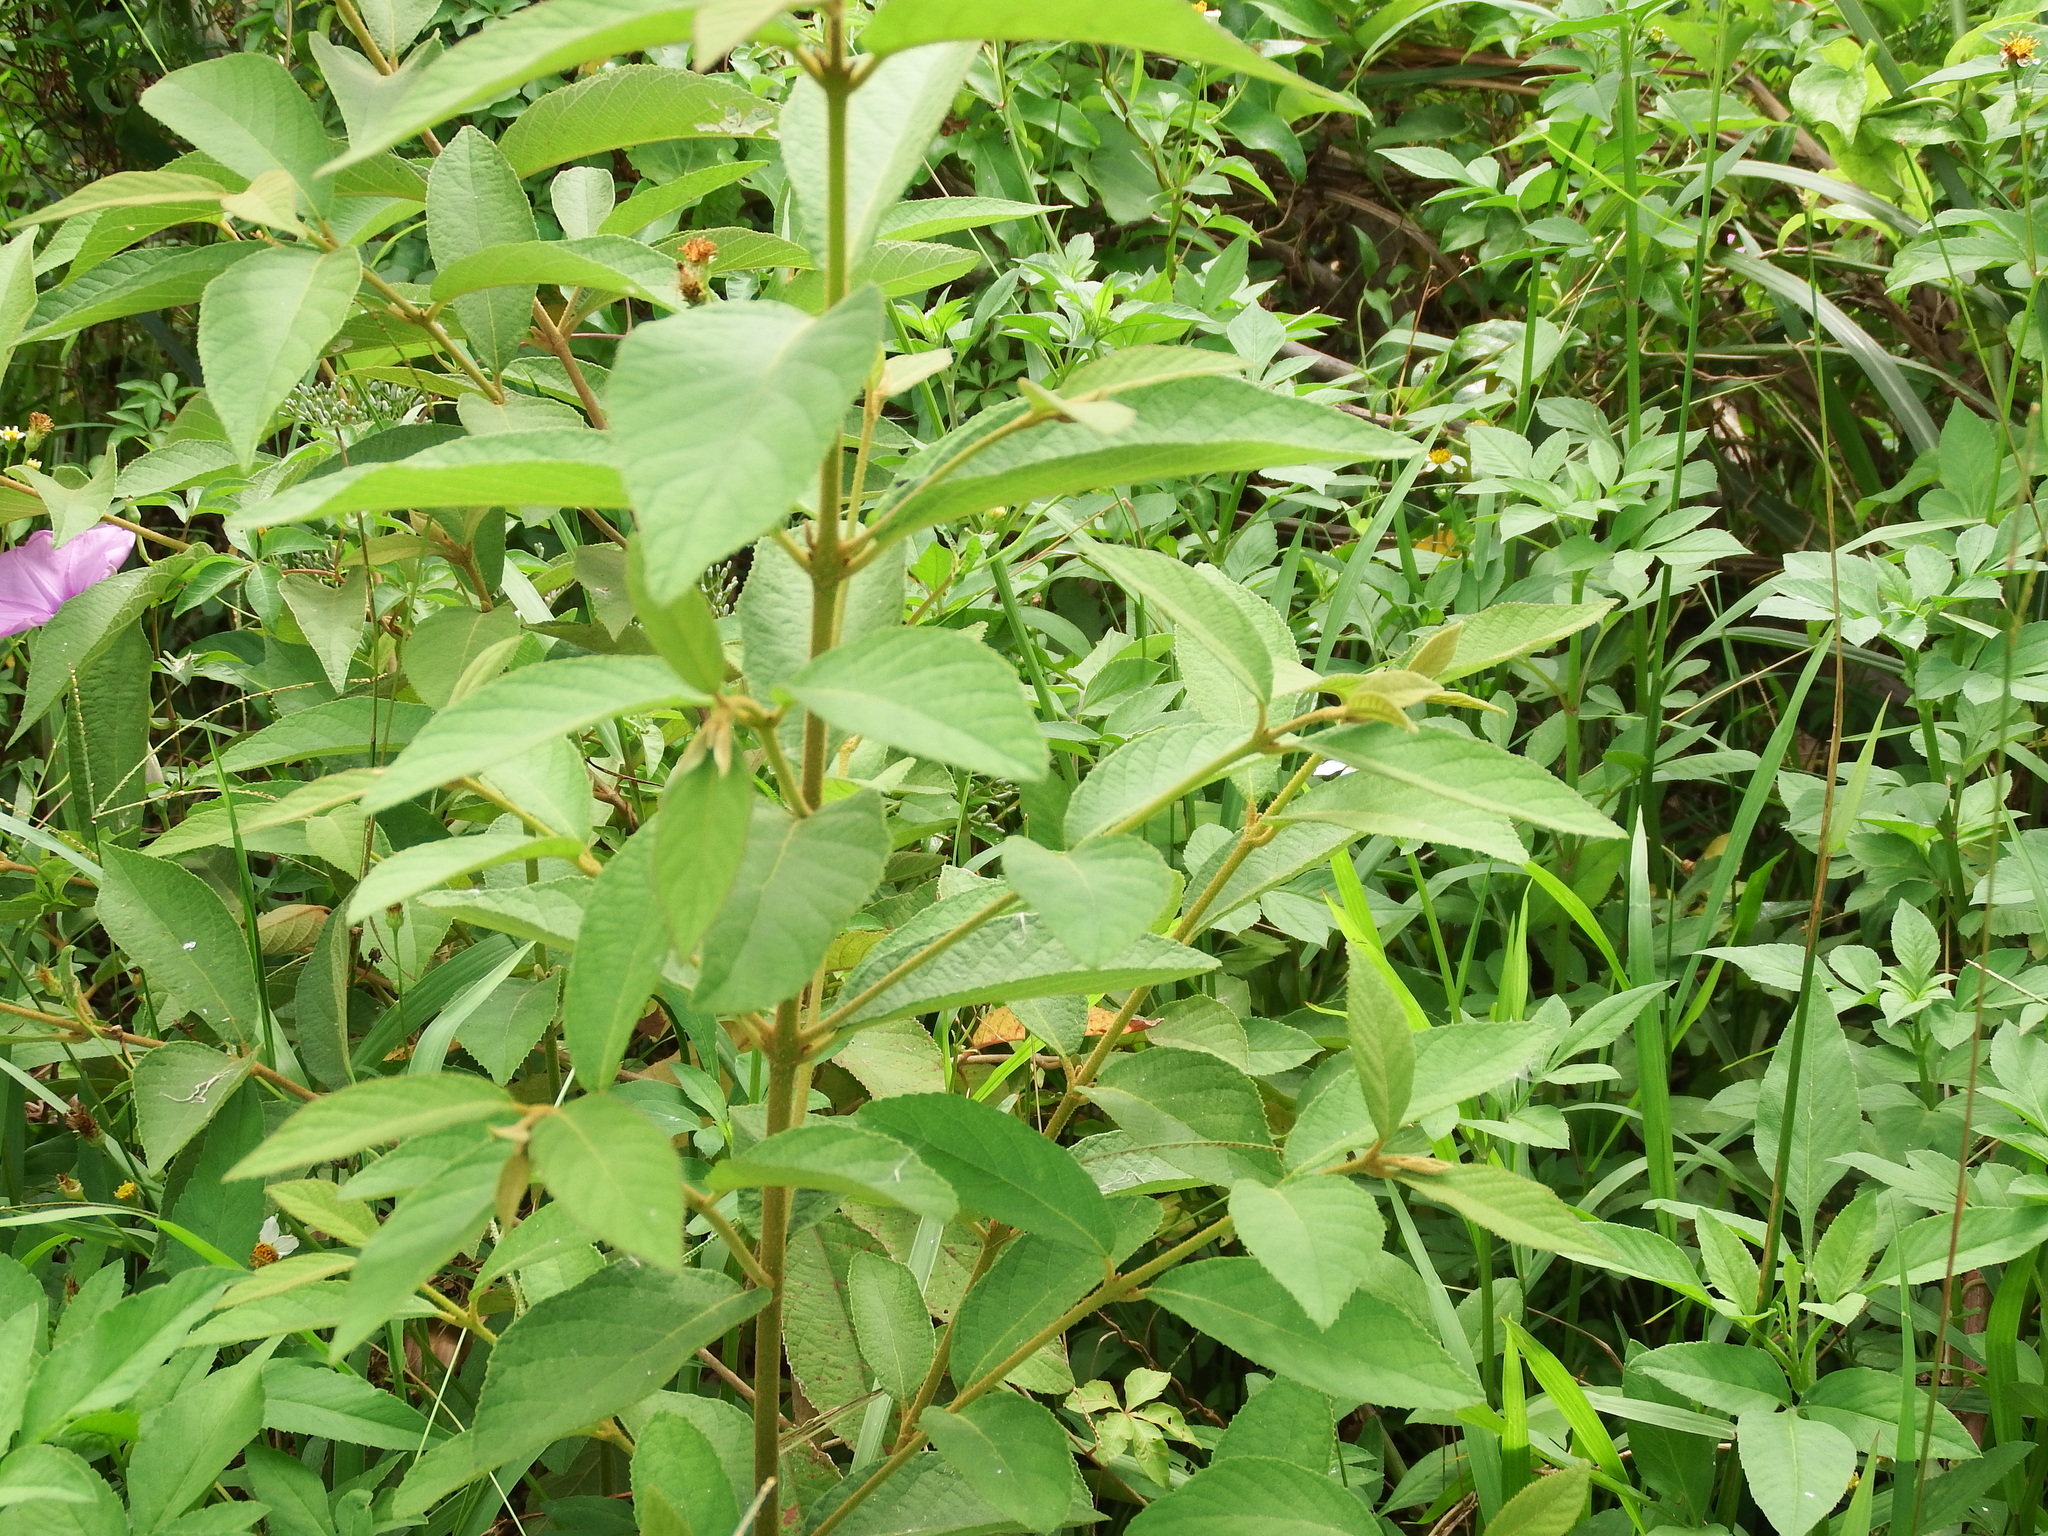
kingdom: Plantae
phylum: Tracheophyta
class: Magnoliopsida
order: Lamiales
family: Lamiaceae
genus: Callicarpa
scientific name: Callicarpa pedunculata
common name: Velvetleaf
